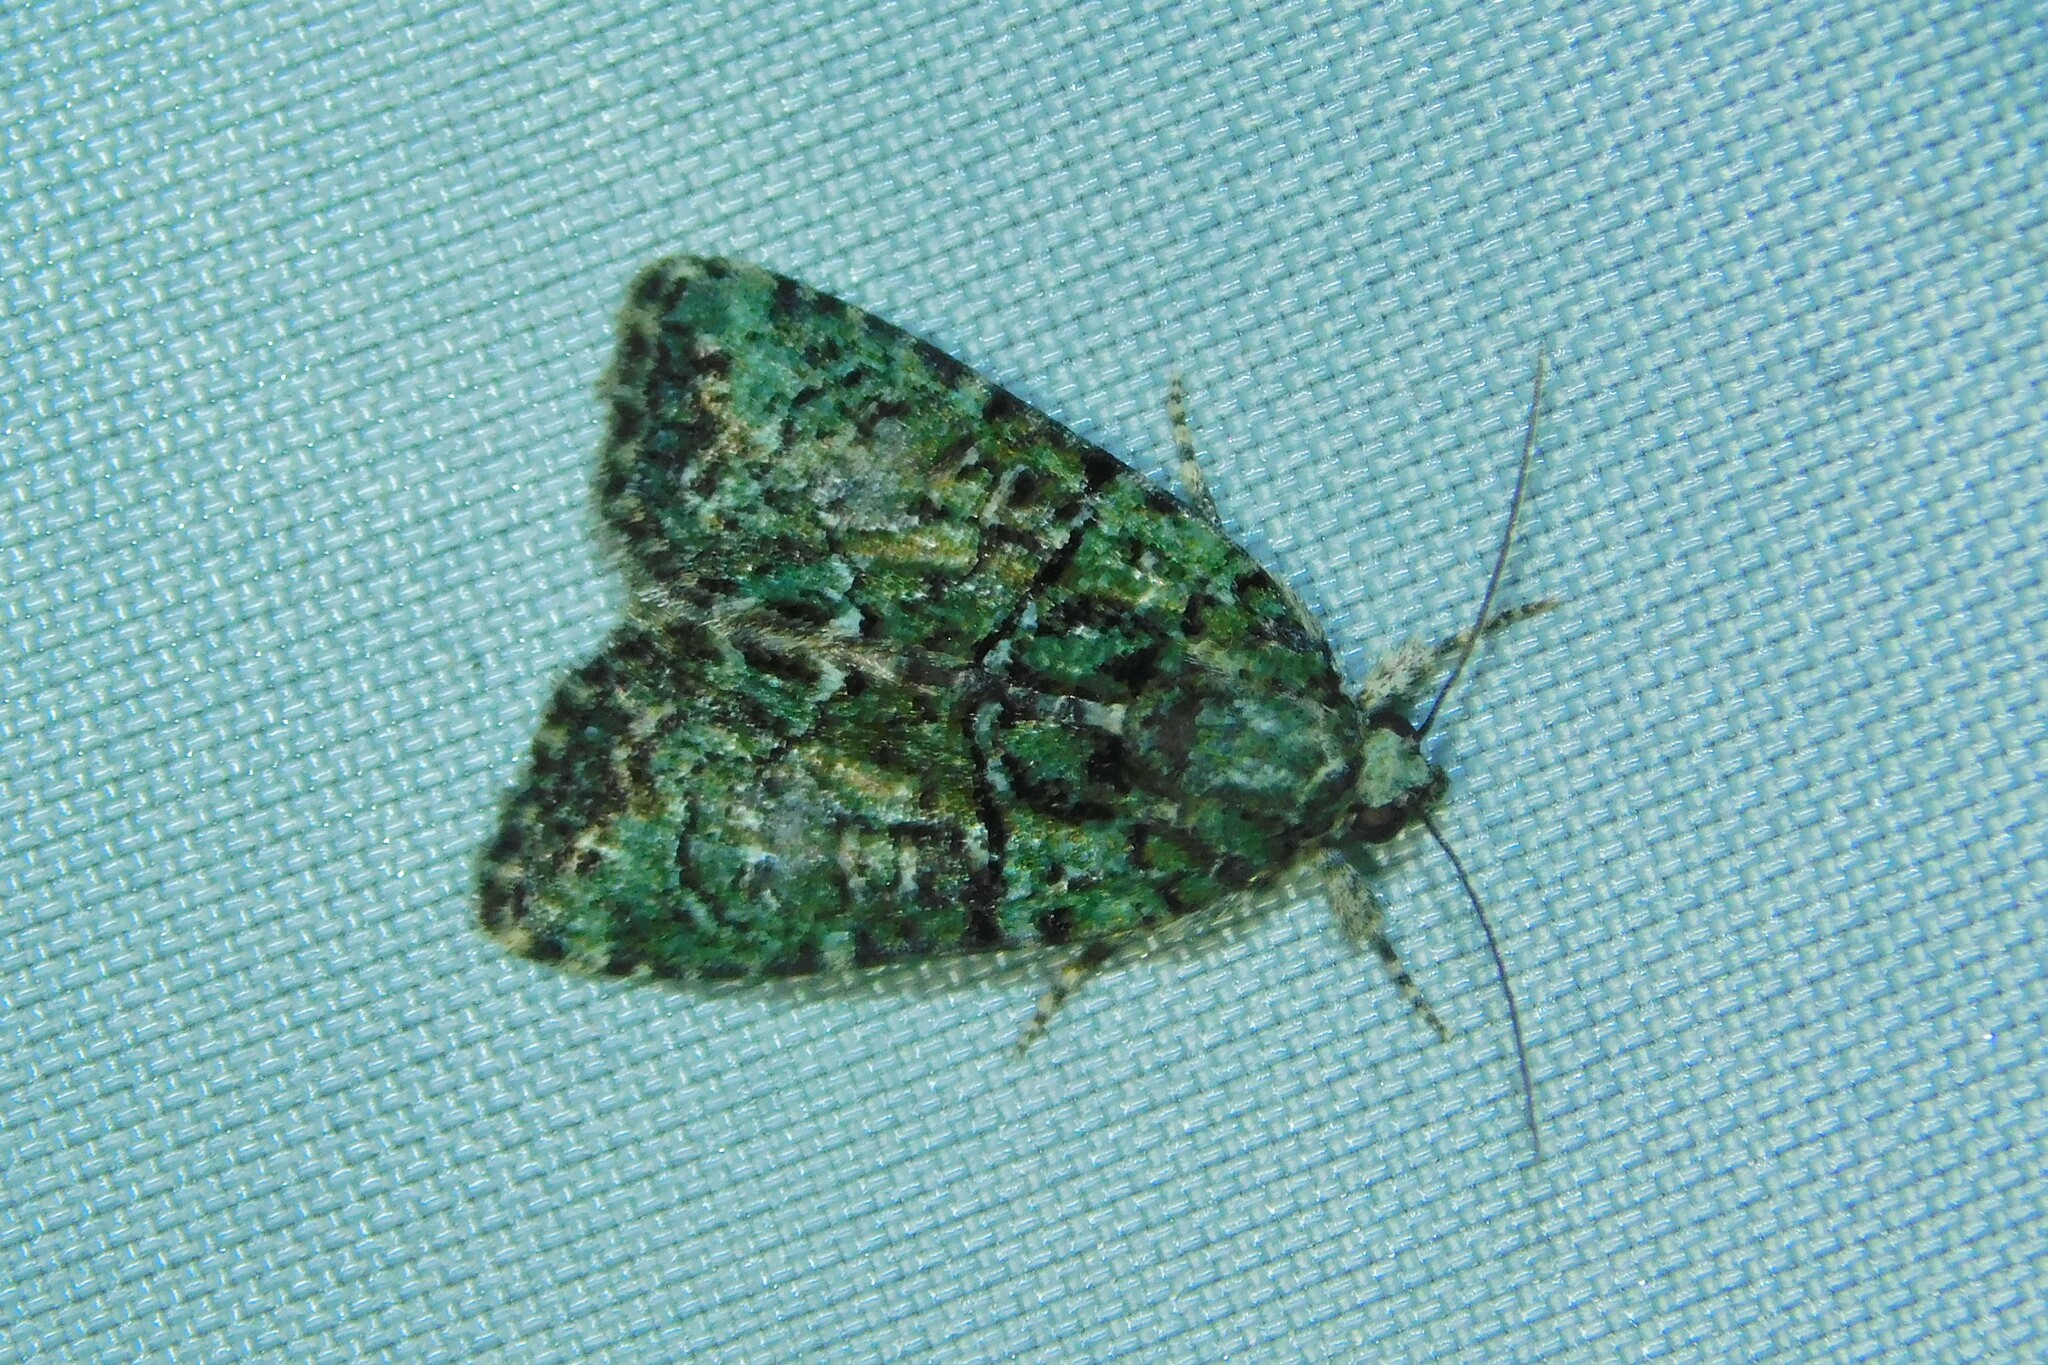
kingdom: Animalia
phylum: Arthropoda
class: Insecta
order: Lepidoptera
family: Noctuidae
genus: Cryphia
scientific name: Cryphia algae
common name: Tree-lichen beauty
